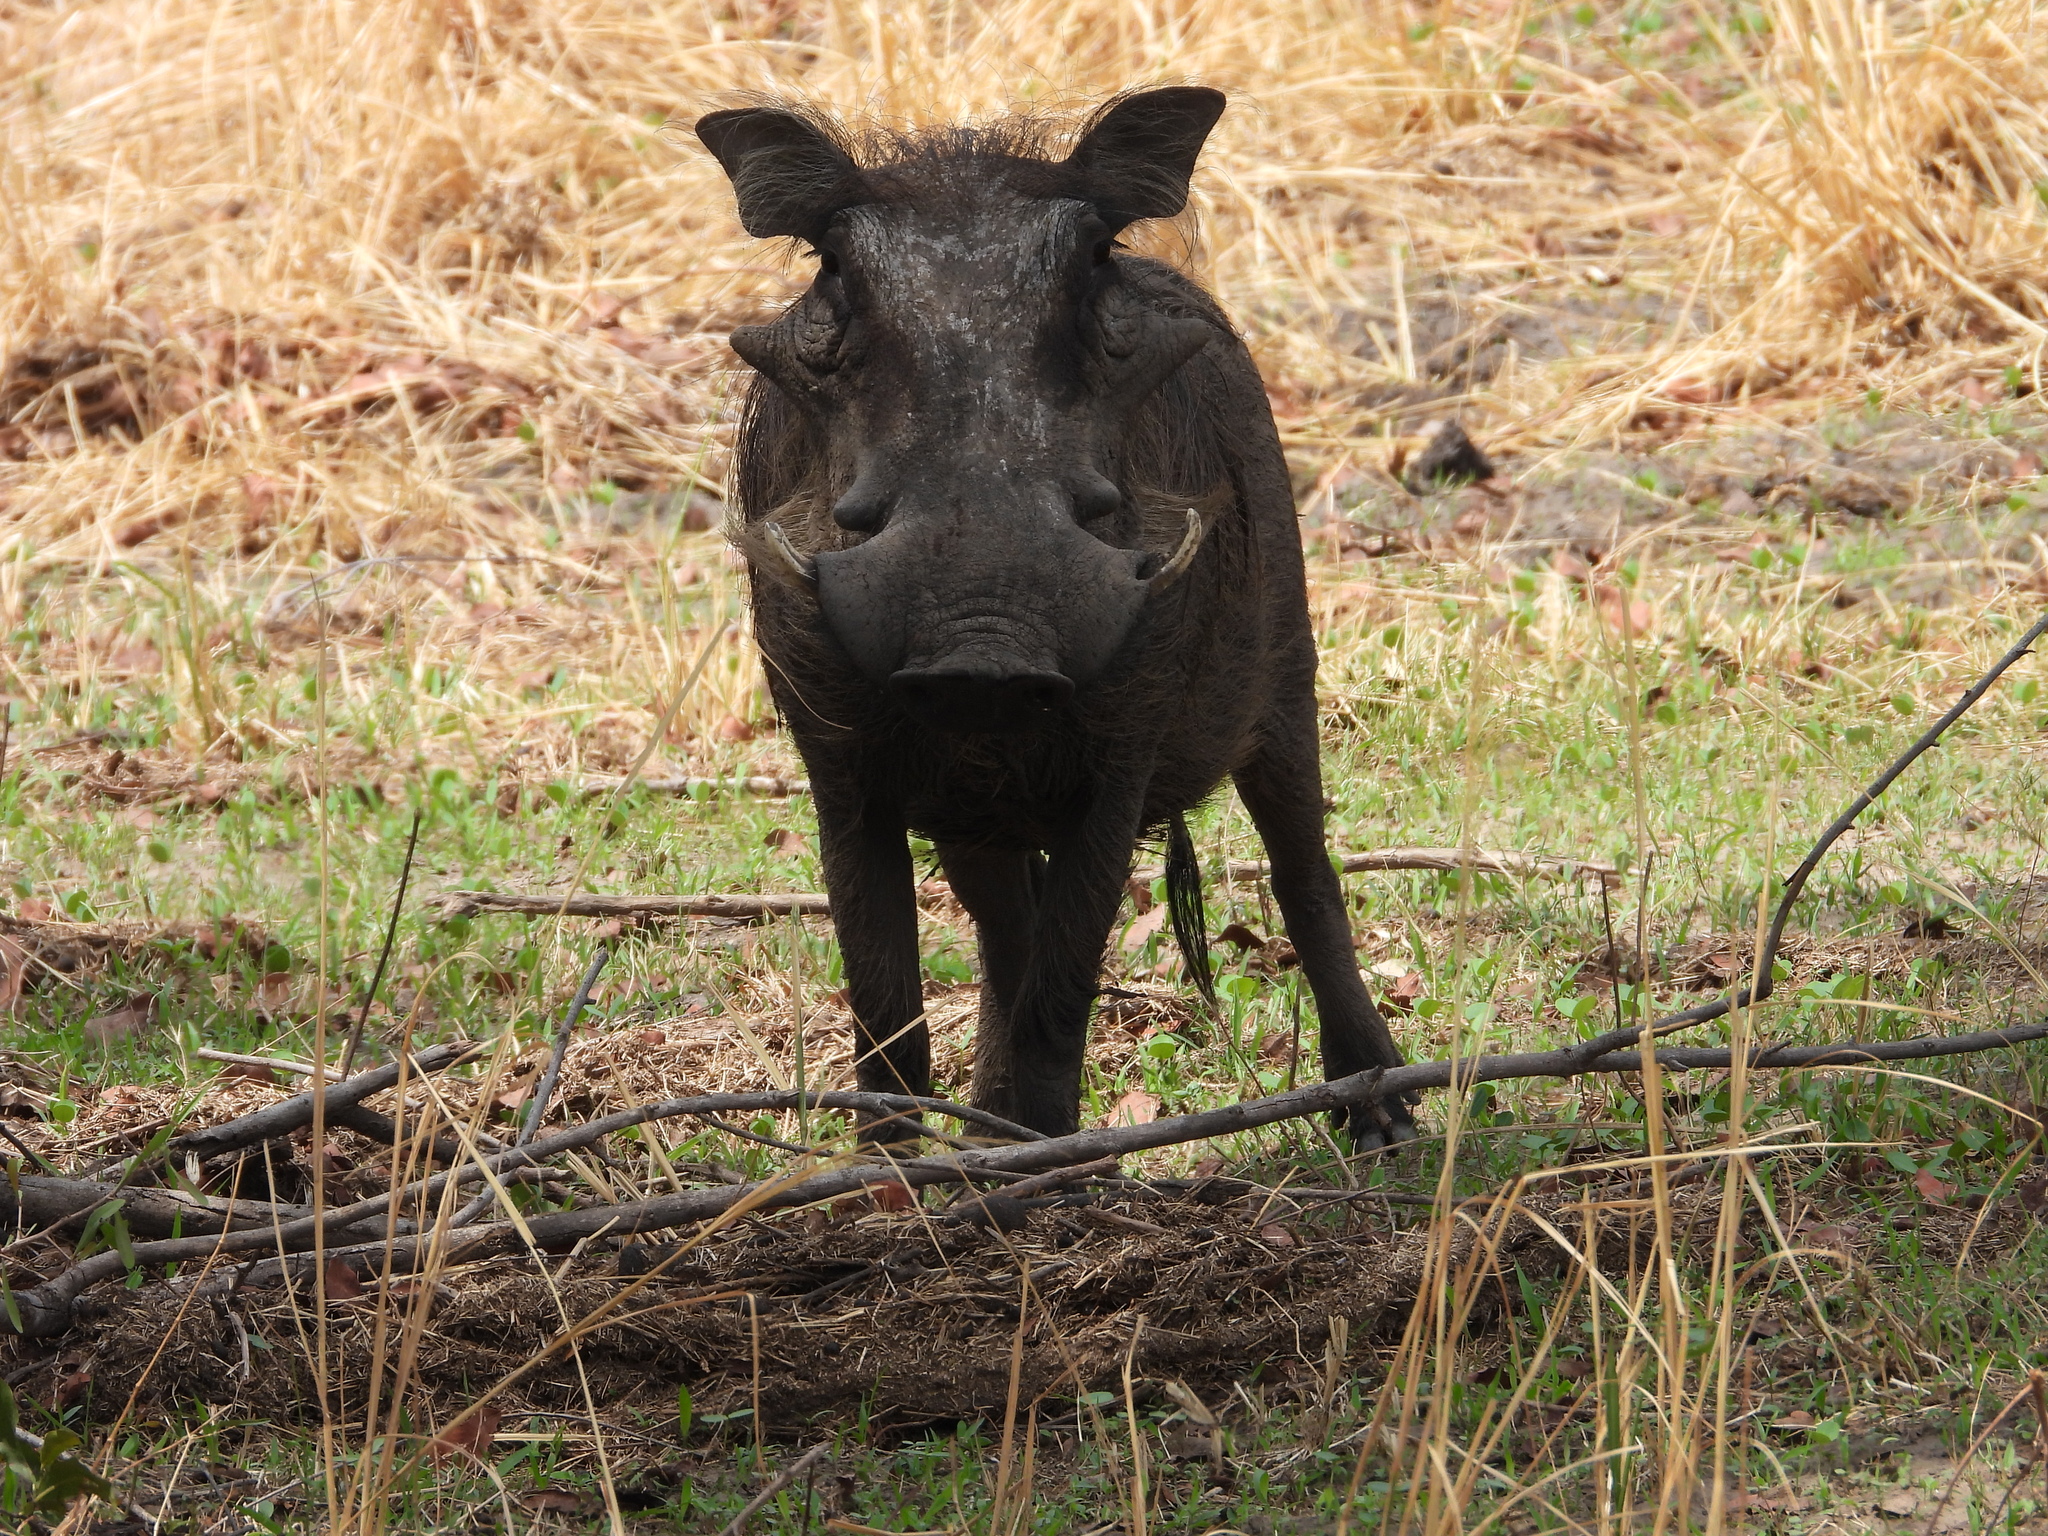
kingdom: Animalia
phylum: Chordata
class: Mammalia
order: Artiodactyla
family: Suidae
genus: Phacochoerus
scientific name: Phacochoerus africanus
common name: Common warthog
